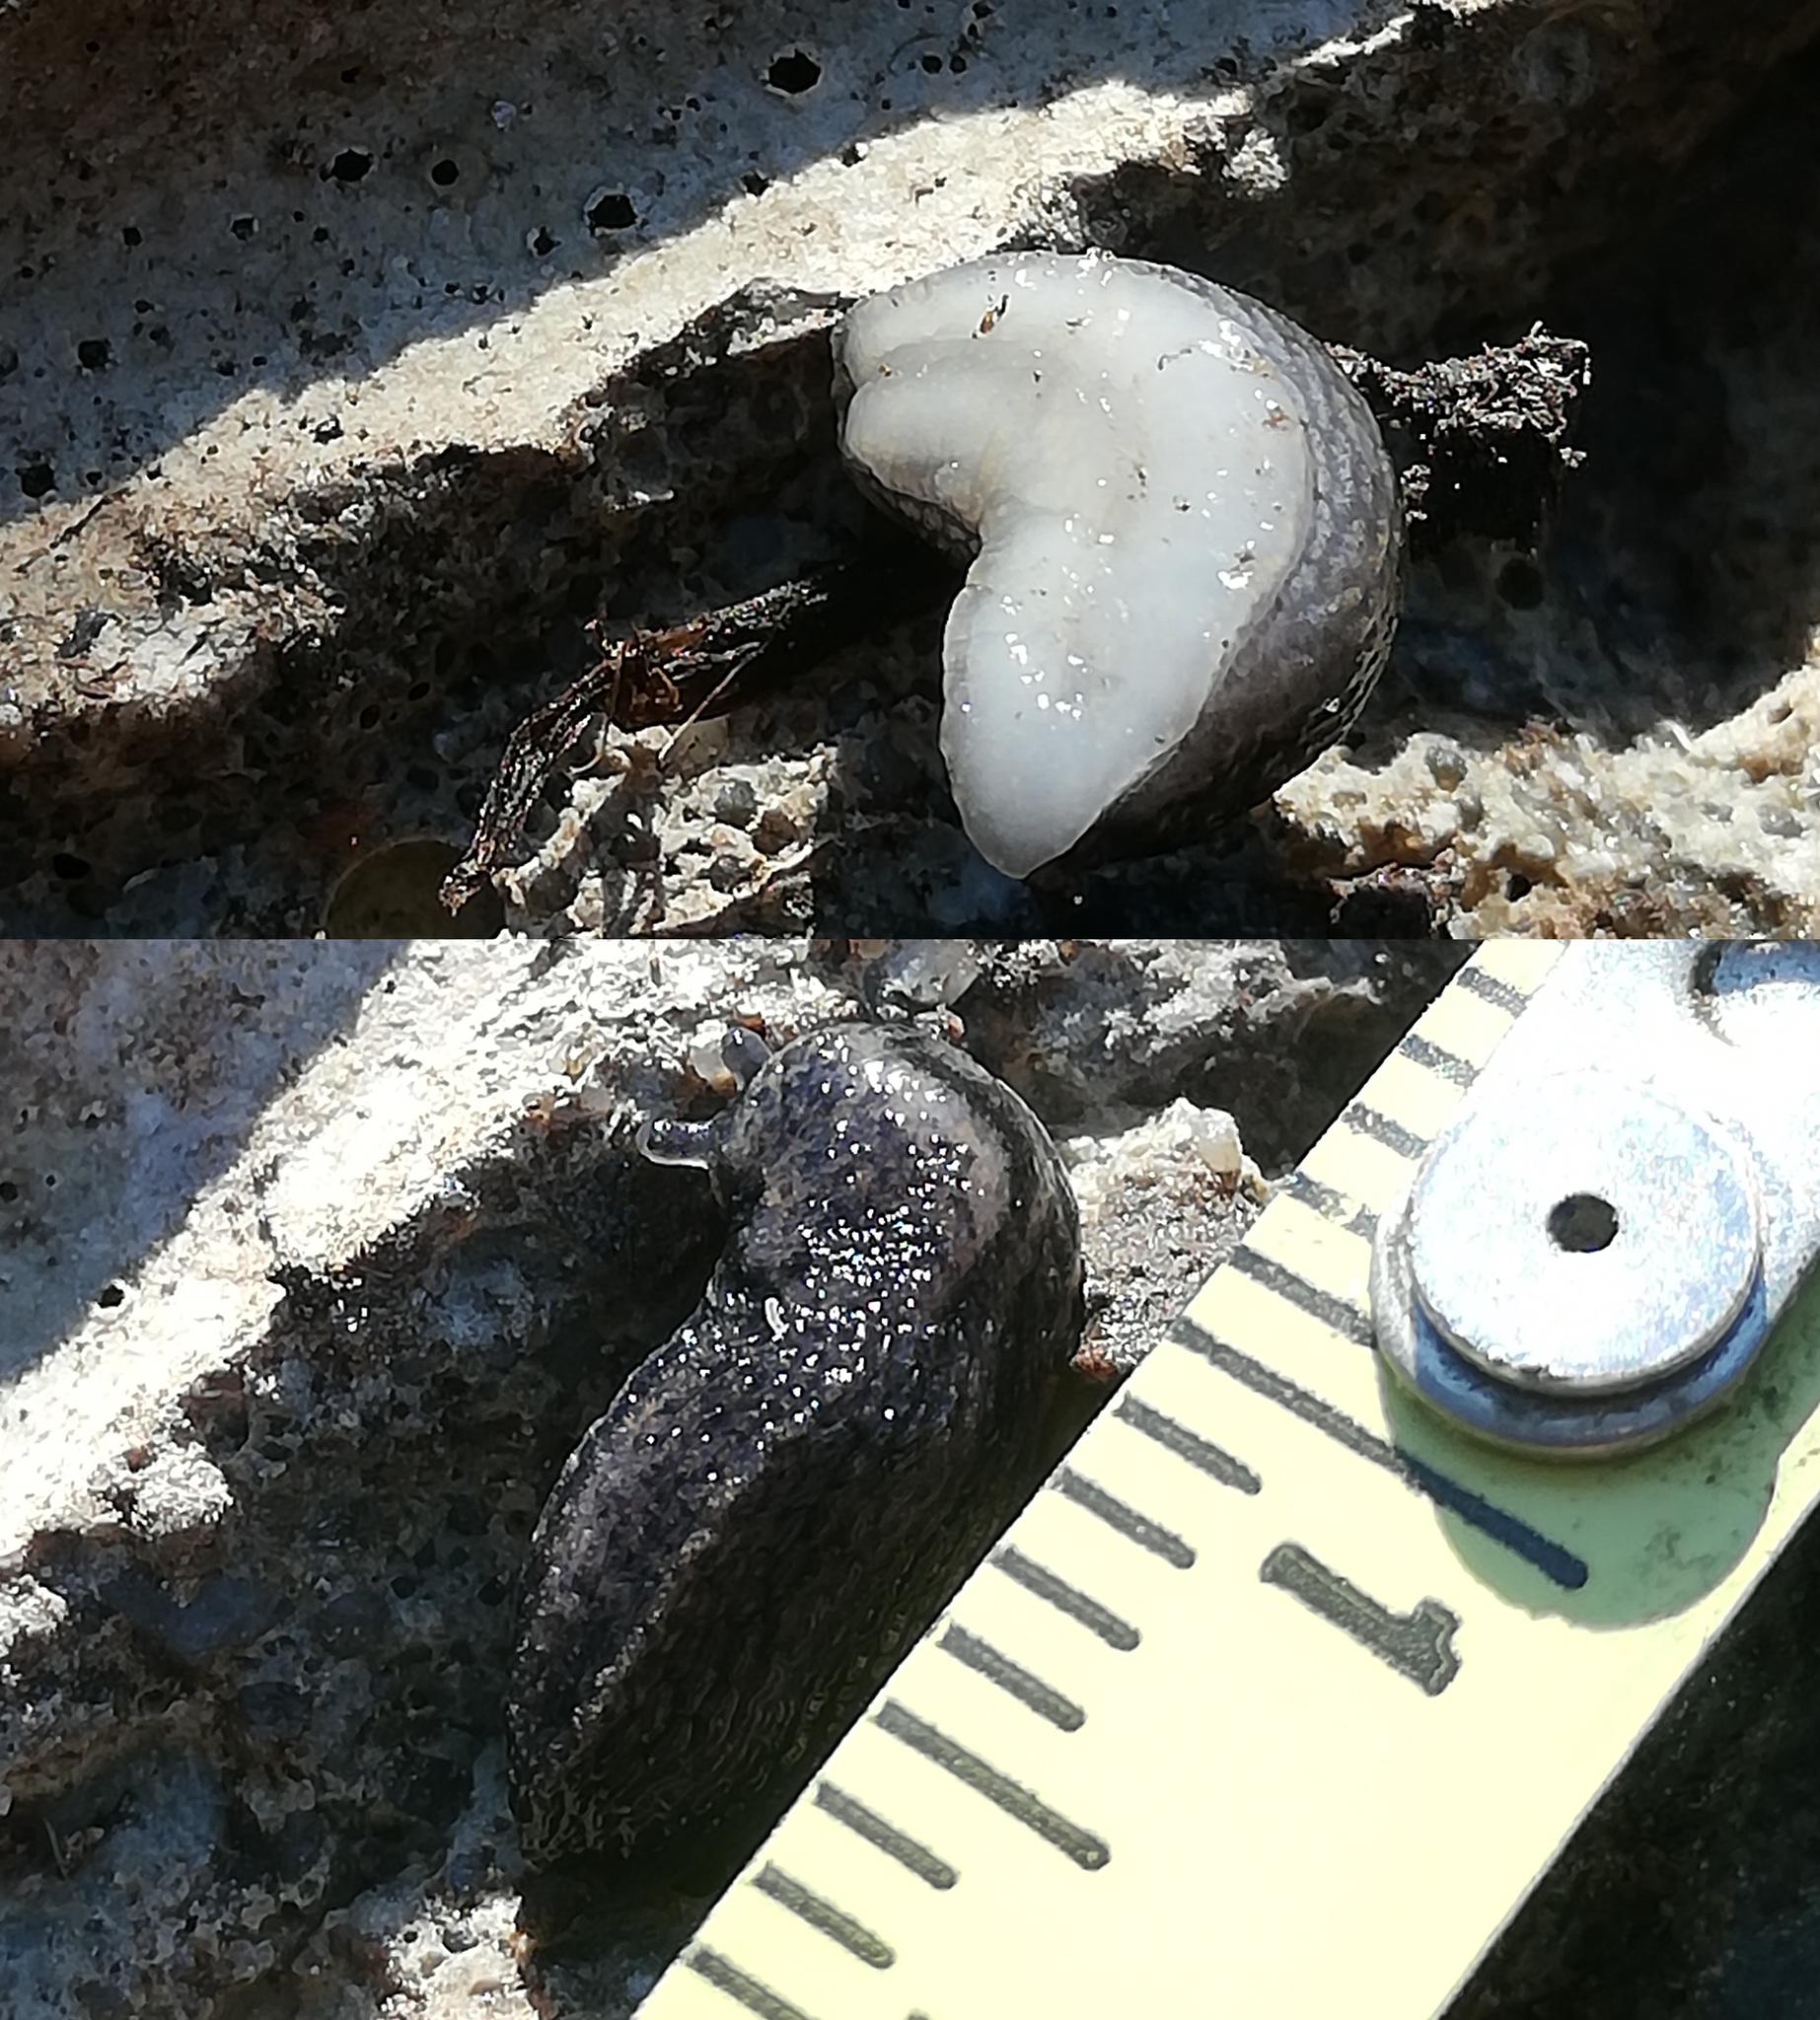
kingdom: Animalia
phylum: Mollusca
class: Gastropoda
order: Stylommatophora
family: Arionidae
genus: Arion
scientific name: Arion fasciatus
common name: Orange-banded arion
